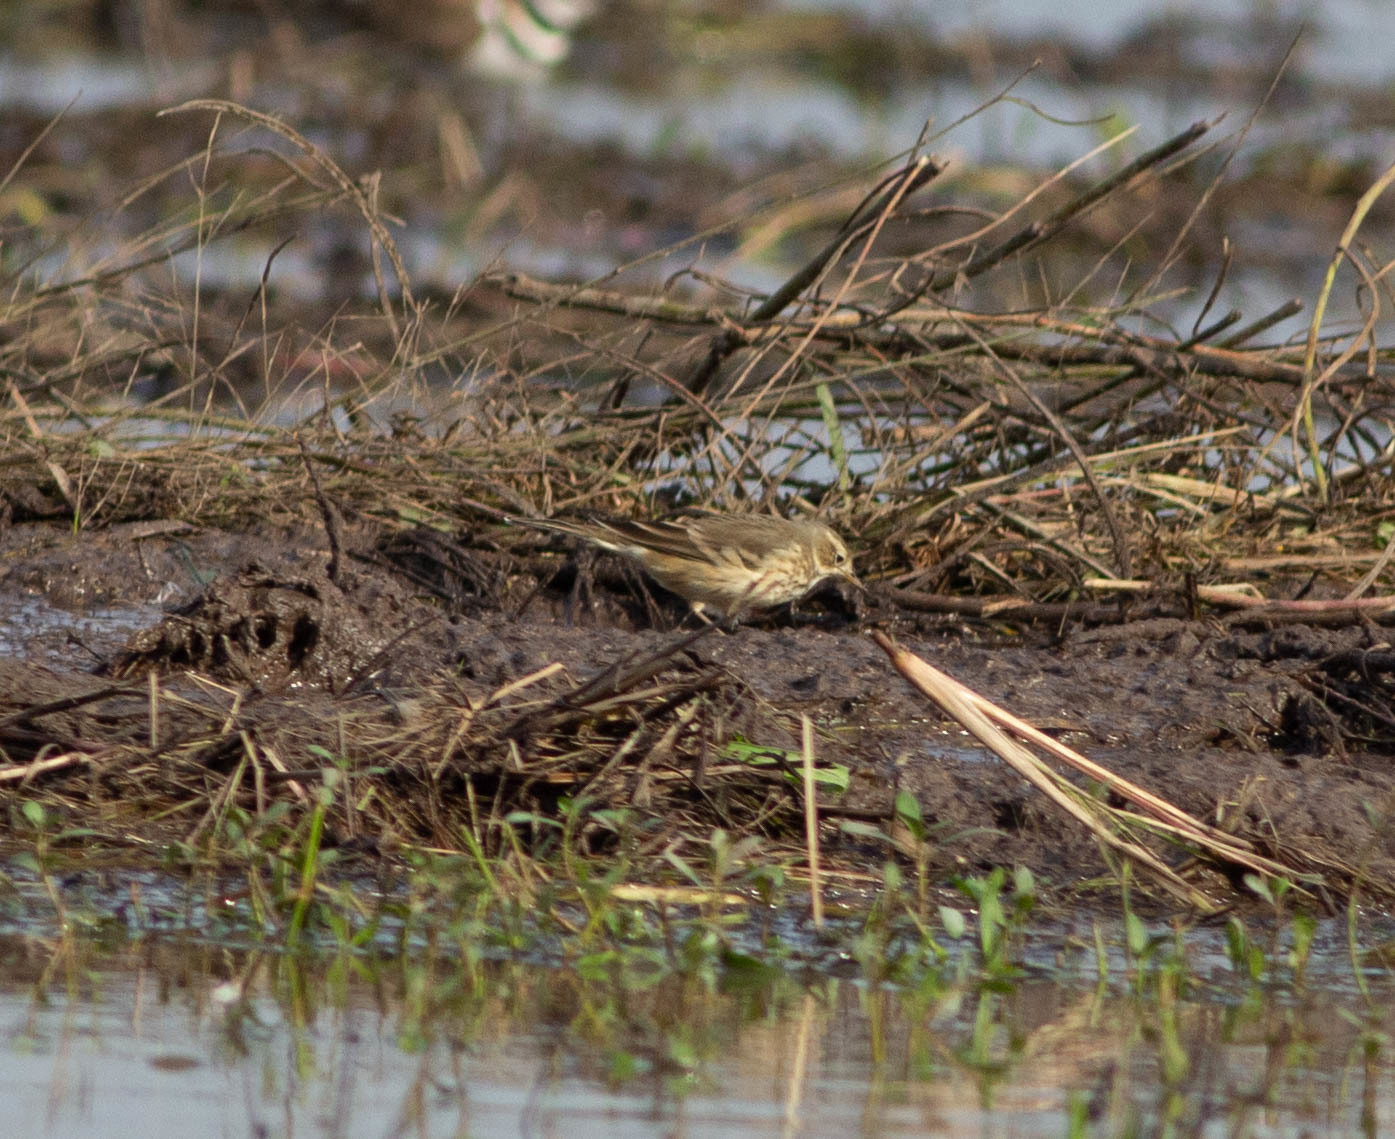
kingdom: Animalia
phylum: Chordata
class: Aves
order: Passeriformes
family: Motacillidae
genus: Anthus
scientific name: Anthus rubescens
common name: Buff-bellied pipit
